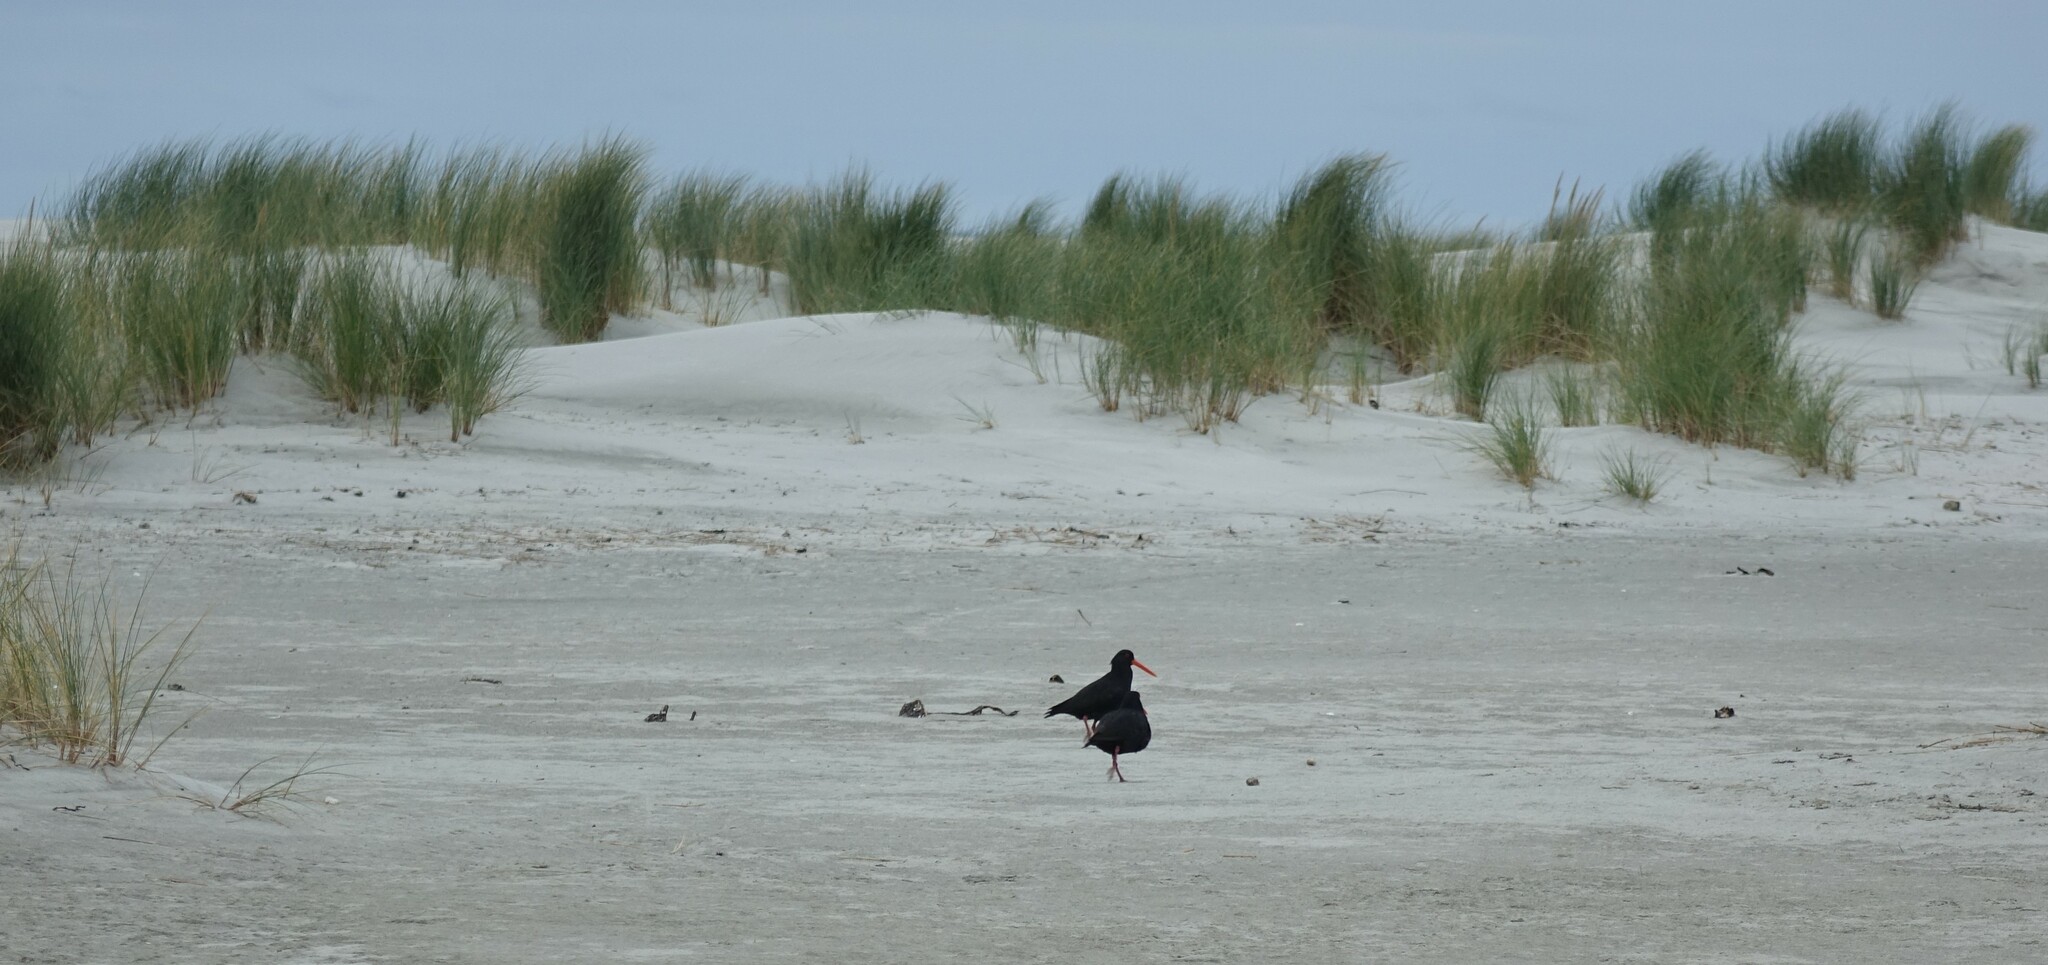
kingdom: Animalia
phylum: Chordata
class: Aves
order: Charadriiformes
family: Haematopodidae
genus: Haematopus
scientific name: Haematopus unicolor
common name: Variable oystercatcher
